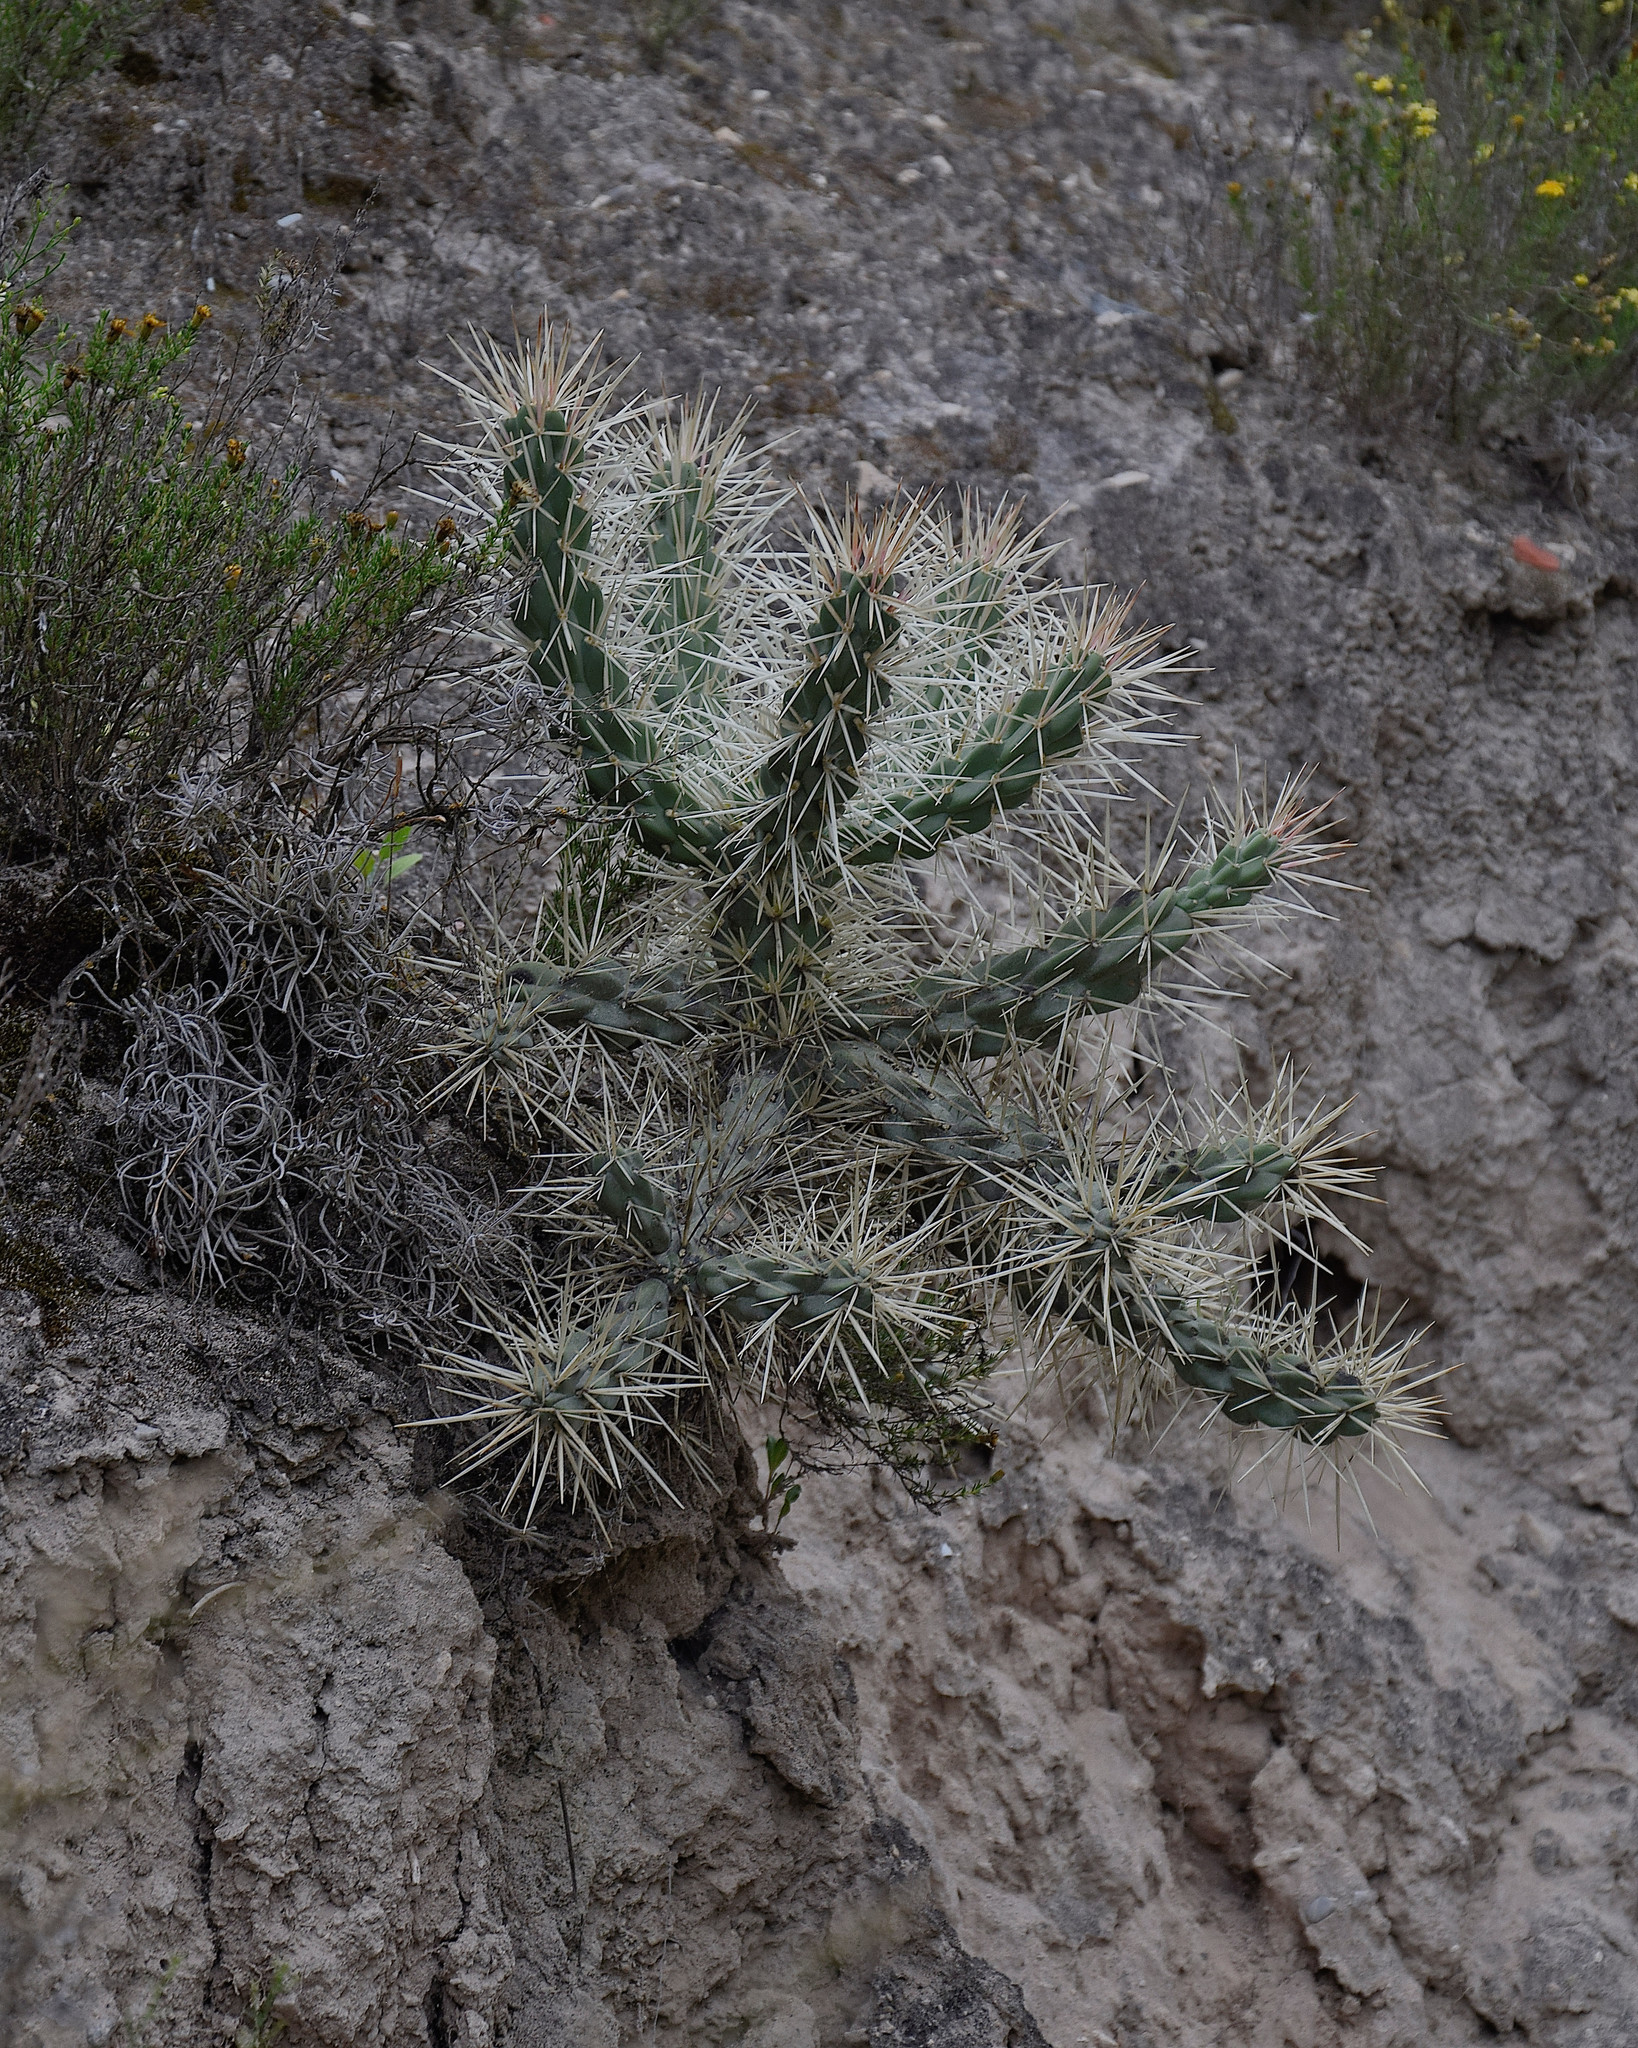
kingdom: Plantae
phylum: Tracheophyta
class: Magnoliopsida
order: Caryophyllales
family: Cactaceae
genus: Cylindropuntia
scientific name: Cylindropuntia imbricata
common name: Candelabrum cactus
